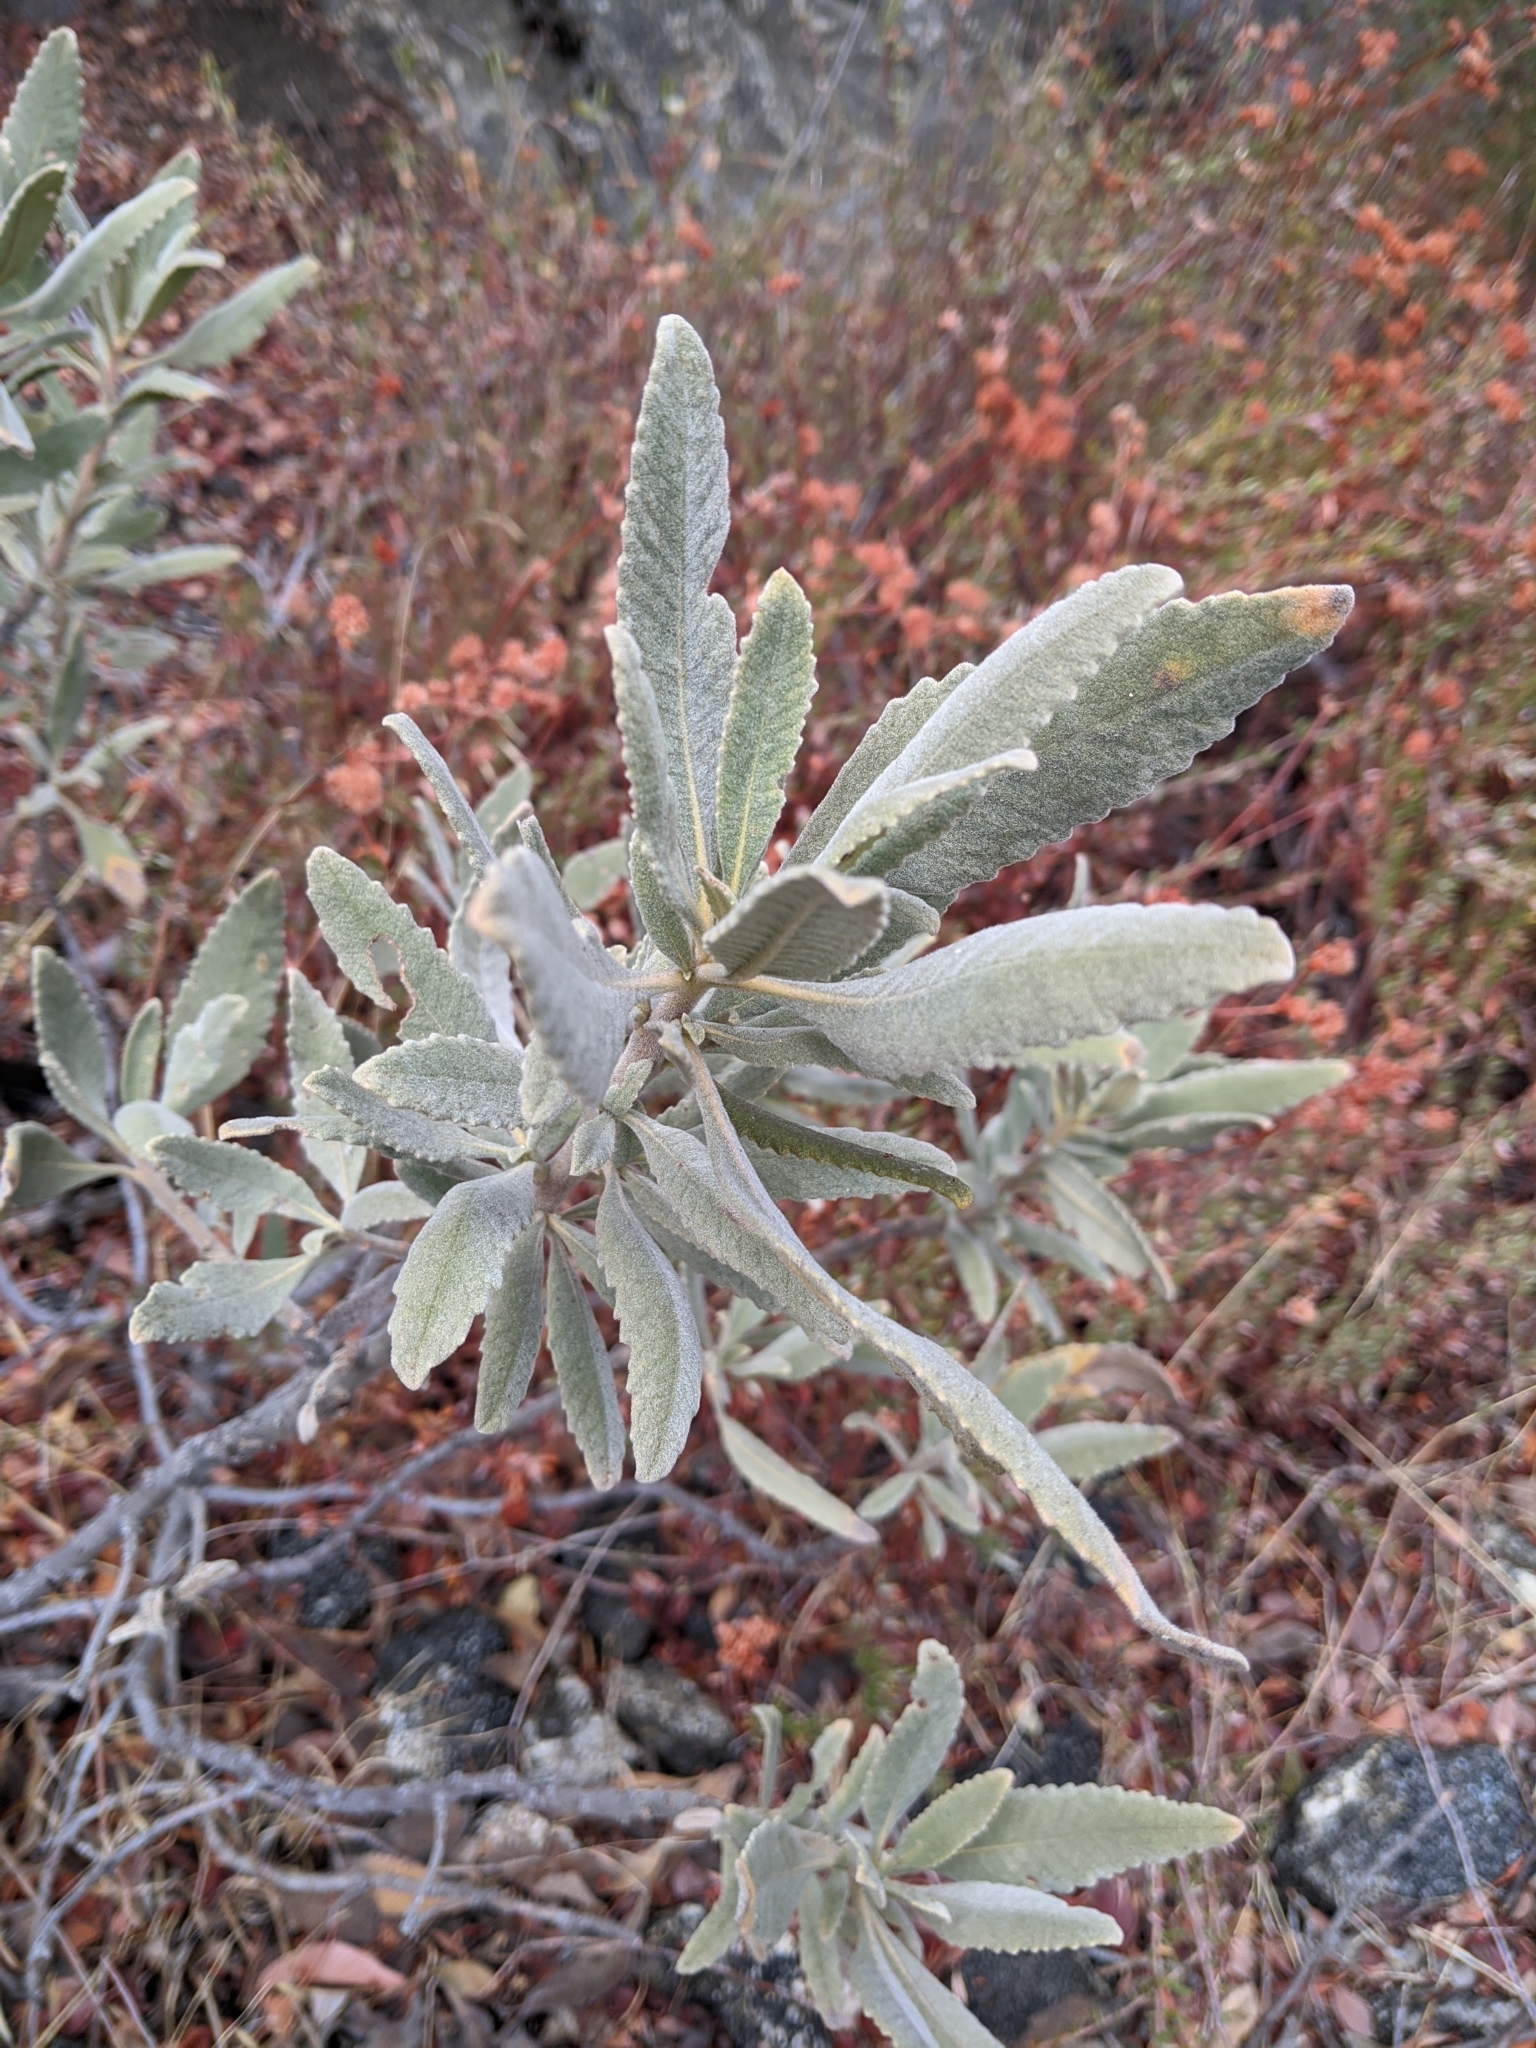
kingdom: Plantae
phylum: Tracheophyta
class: Magnoliopsida
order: Boraginales
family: Namaceae
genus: Eriodictyon
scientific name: Eriodictyon crassifolium
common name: Thick-leaf yerba-santa
